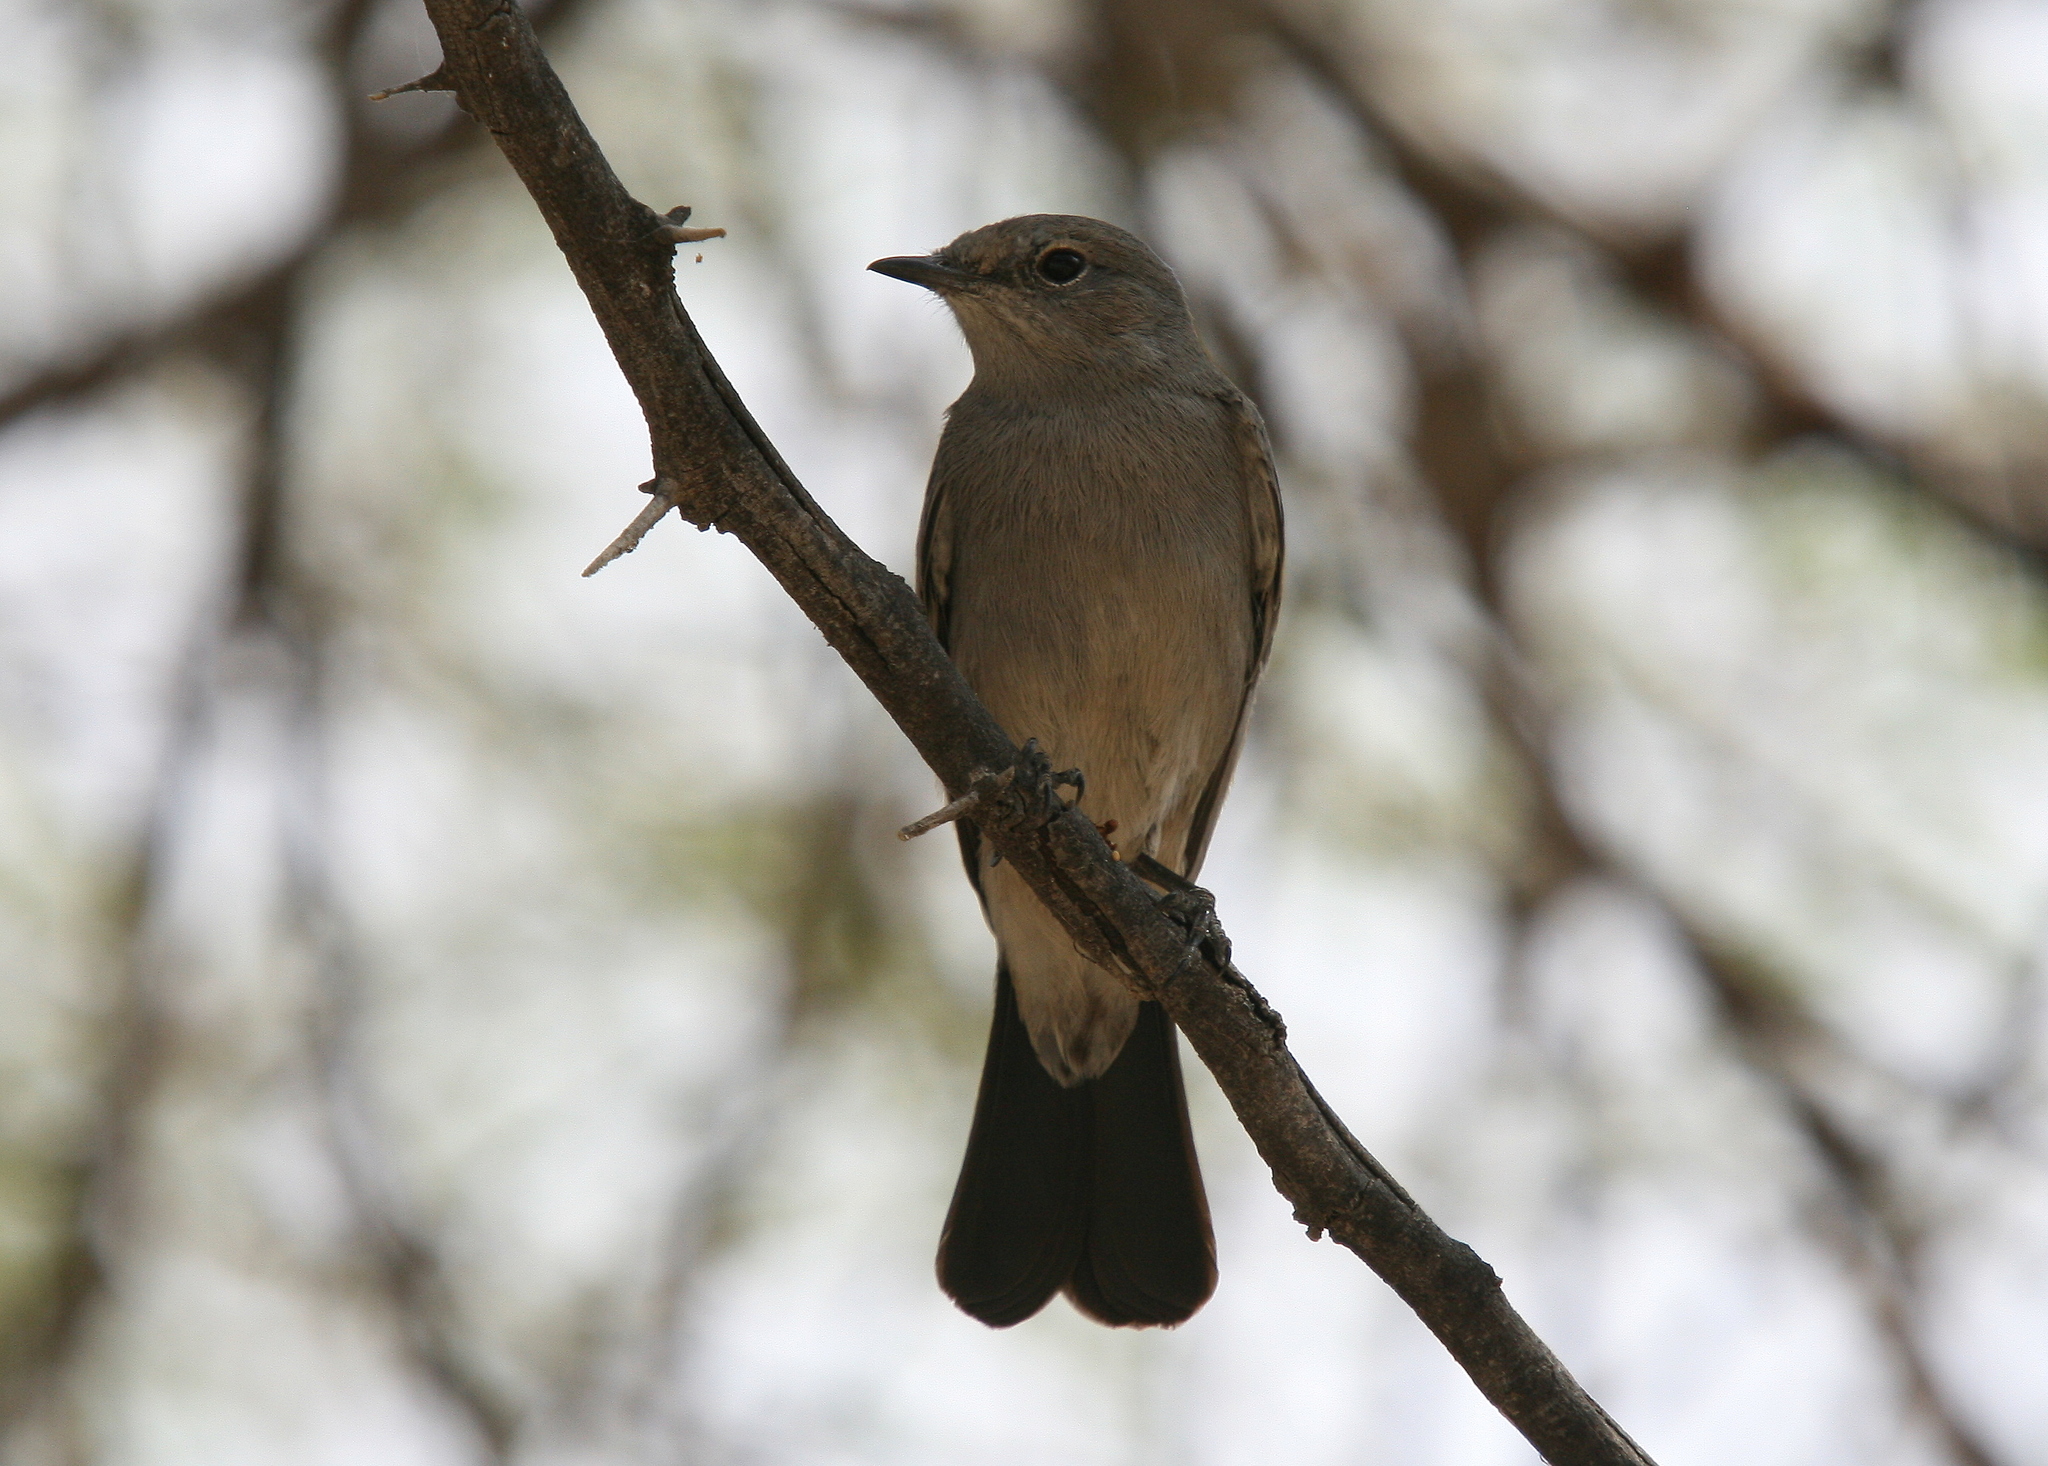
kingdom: Animalia
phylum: Chordata
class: Aves
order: Passeriformes
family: Muscicapidae
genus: Oenanthe
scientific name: Oenanthe melanura
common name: Blackstart
